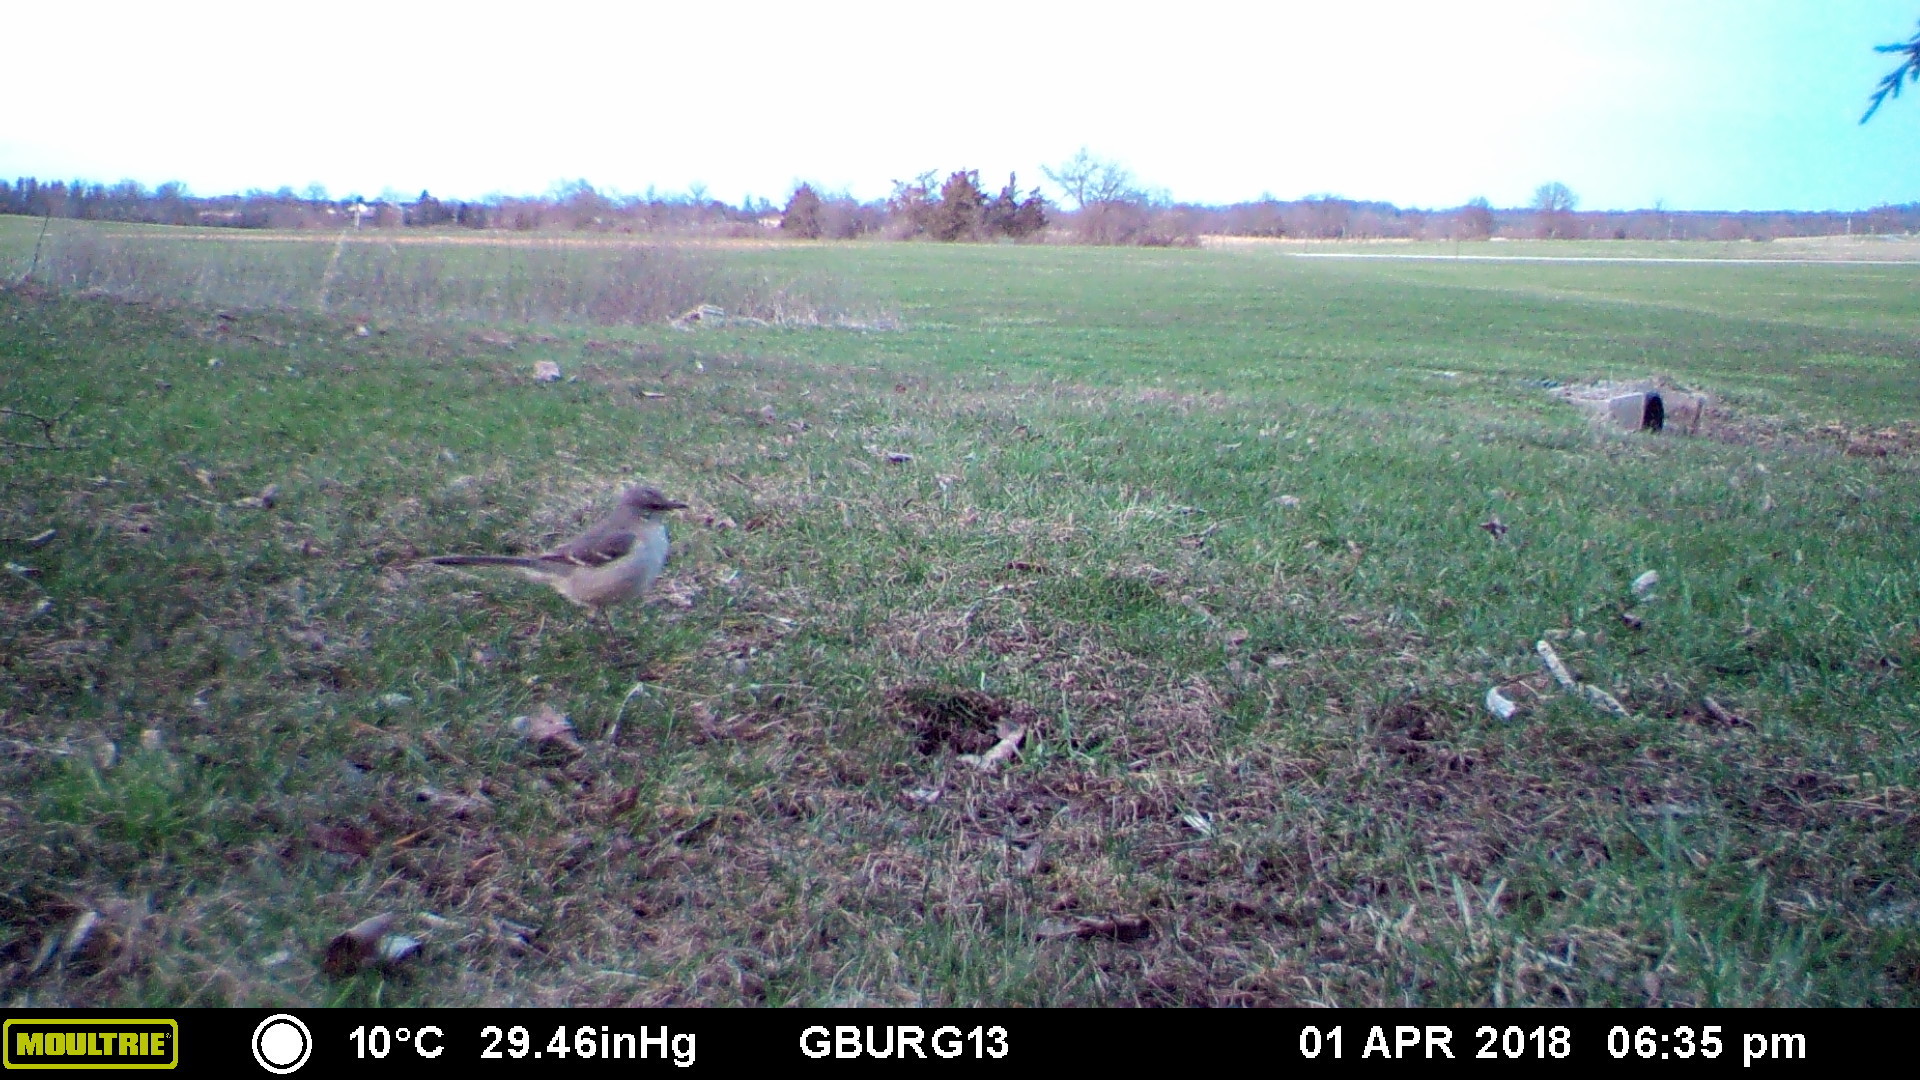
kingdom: Animalia
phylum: Chordata
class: Aves
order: Passeriformes
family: Mimidae
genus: Mimus
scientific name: Mimus polyglottos
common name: Northern mockingbird
